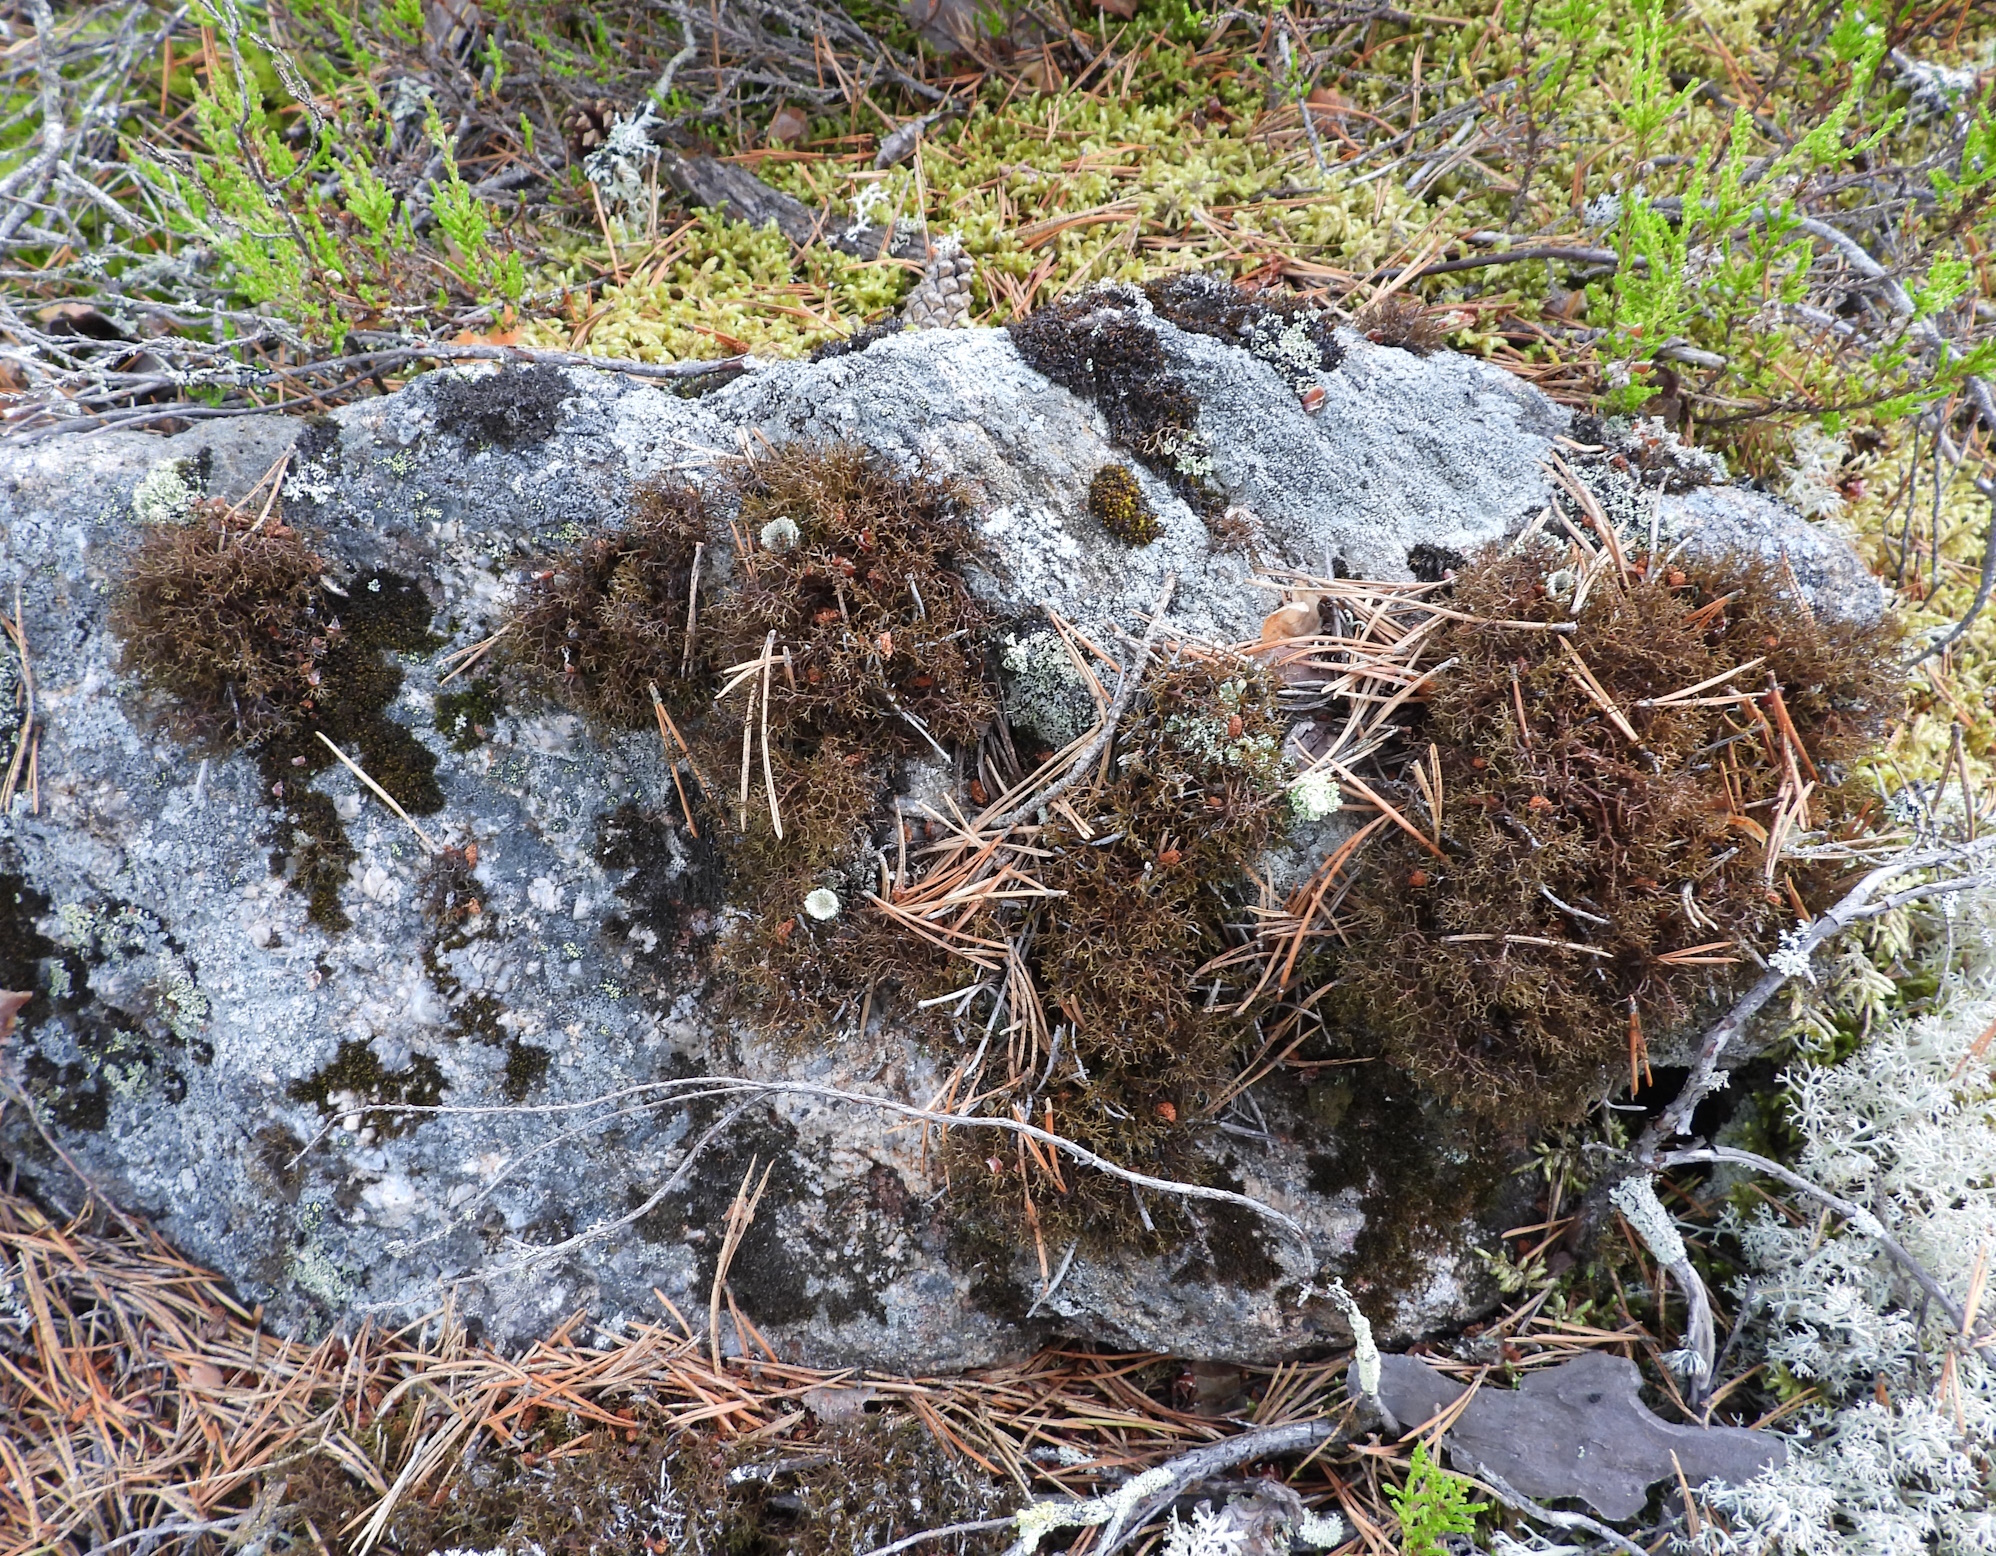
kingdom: Fungi
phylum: Ascomycota
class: Lecanoromycetes
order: Lecanorales
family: Parmeliaceae
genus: Cetraria
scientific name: Cetraria muricata
